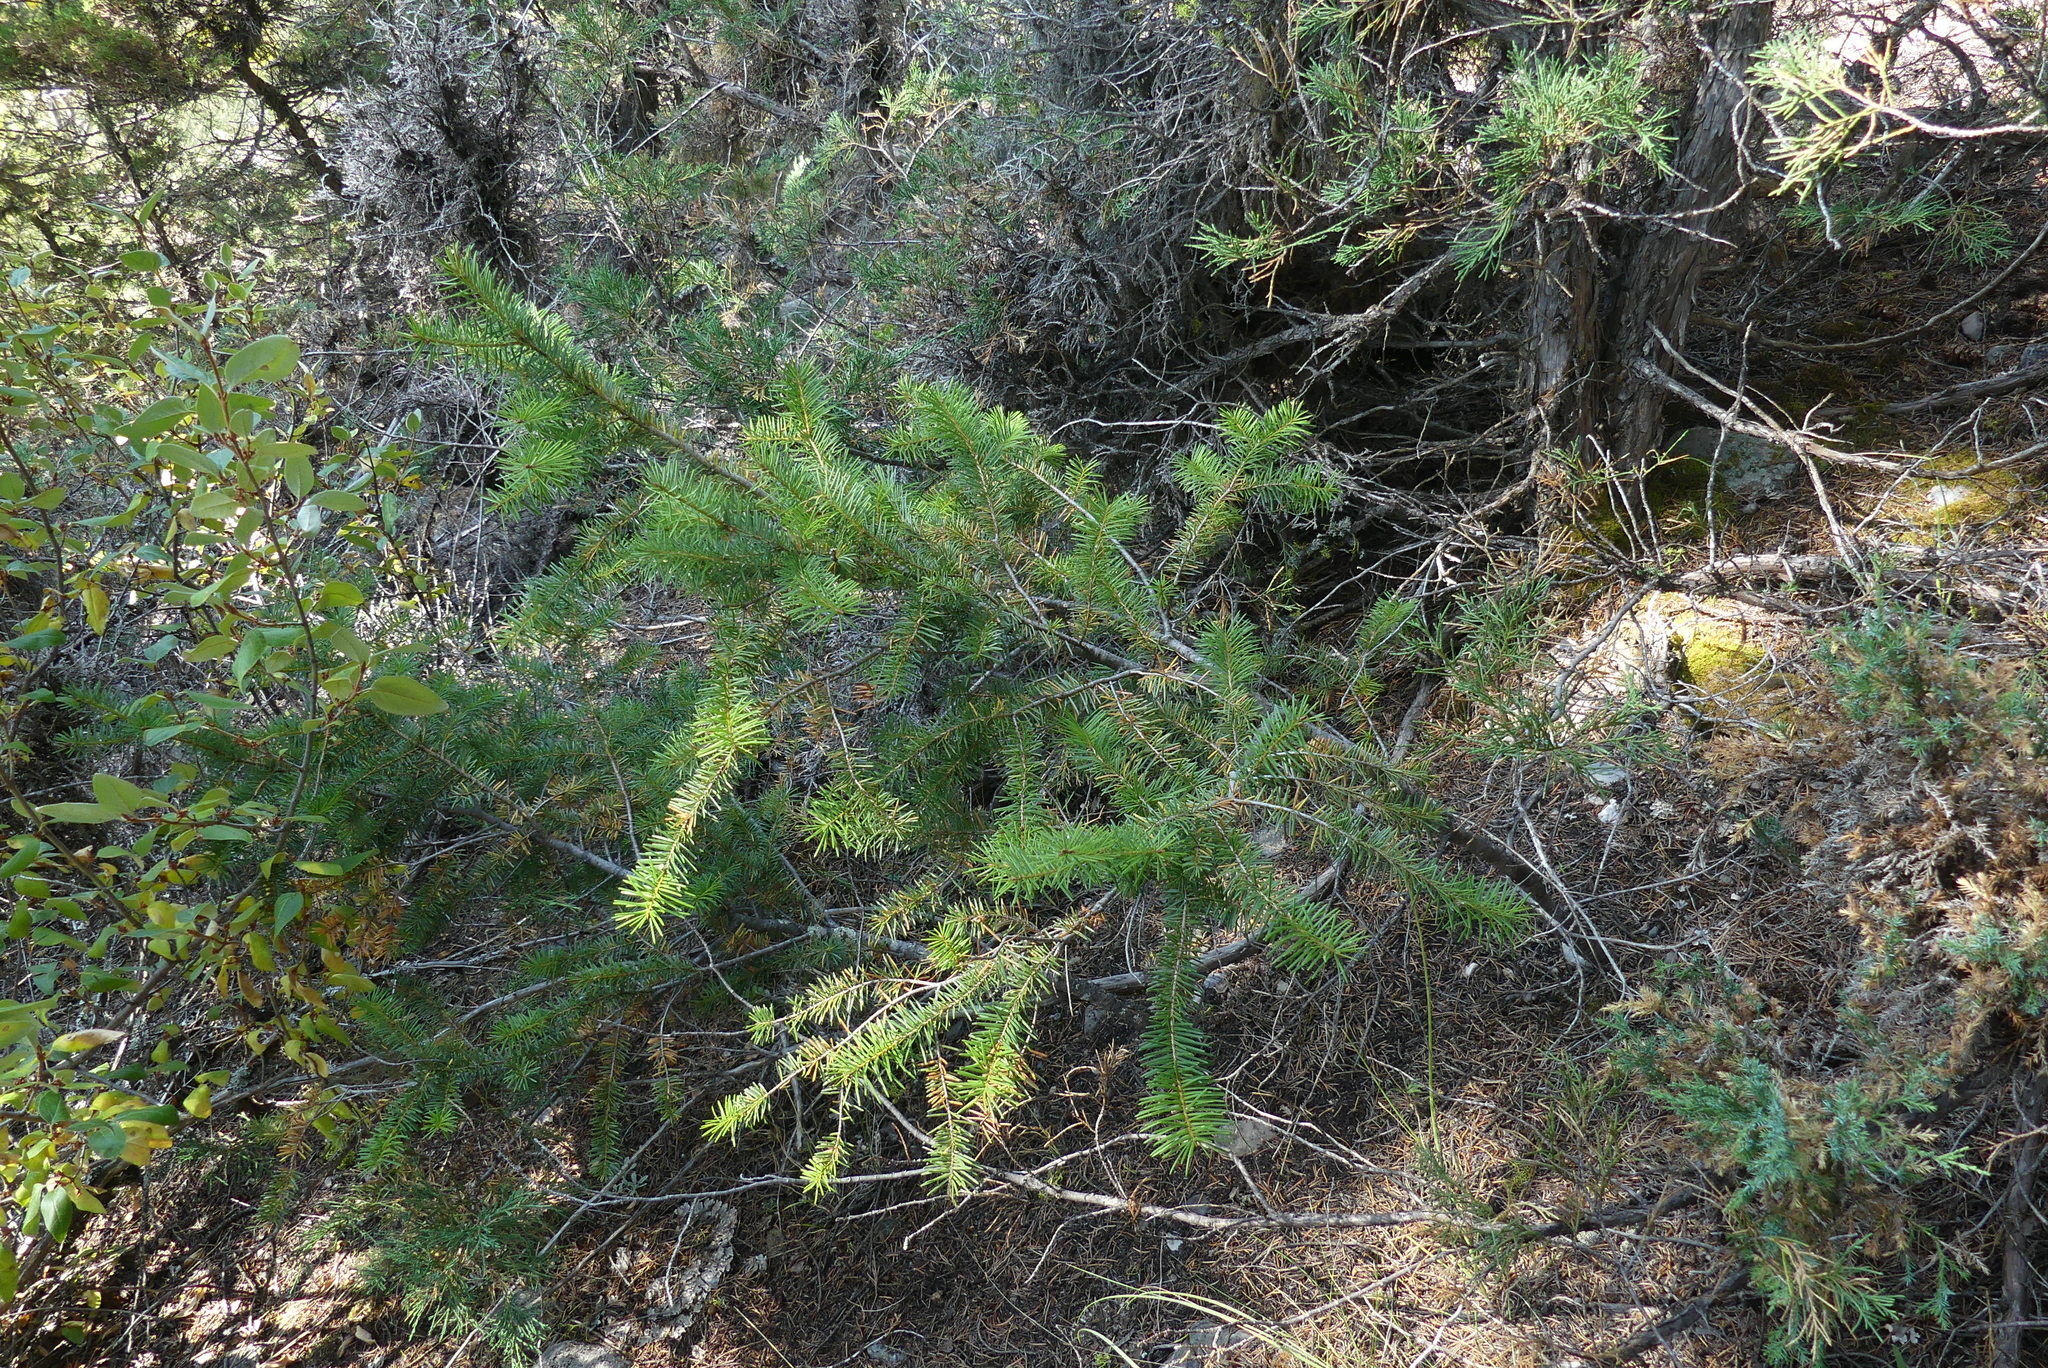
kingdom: Plantae
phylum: Tracheophyta
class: Pinopsida
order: Pinales
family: Pinaceae
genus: Pseudotsuga
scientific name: Pseudotsuga menziesii
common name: Douglas fir
